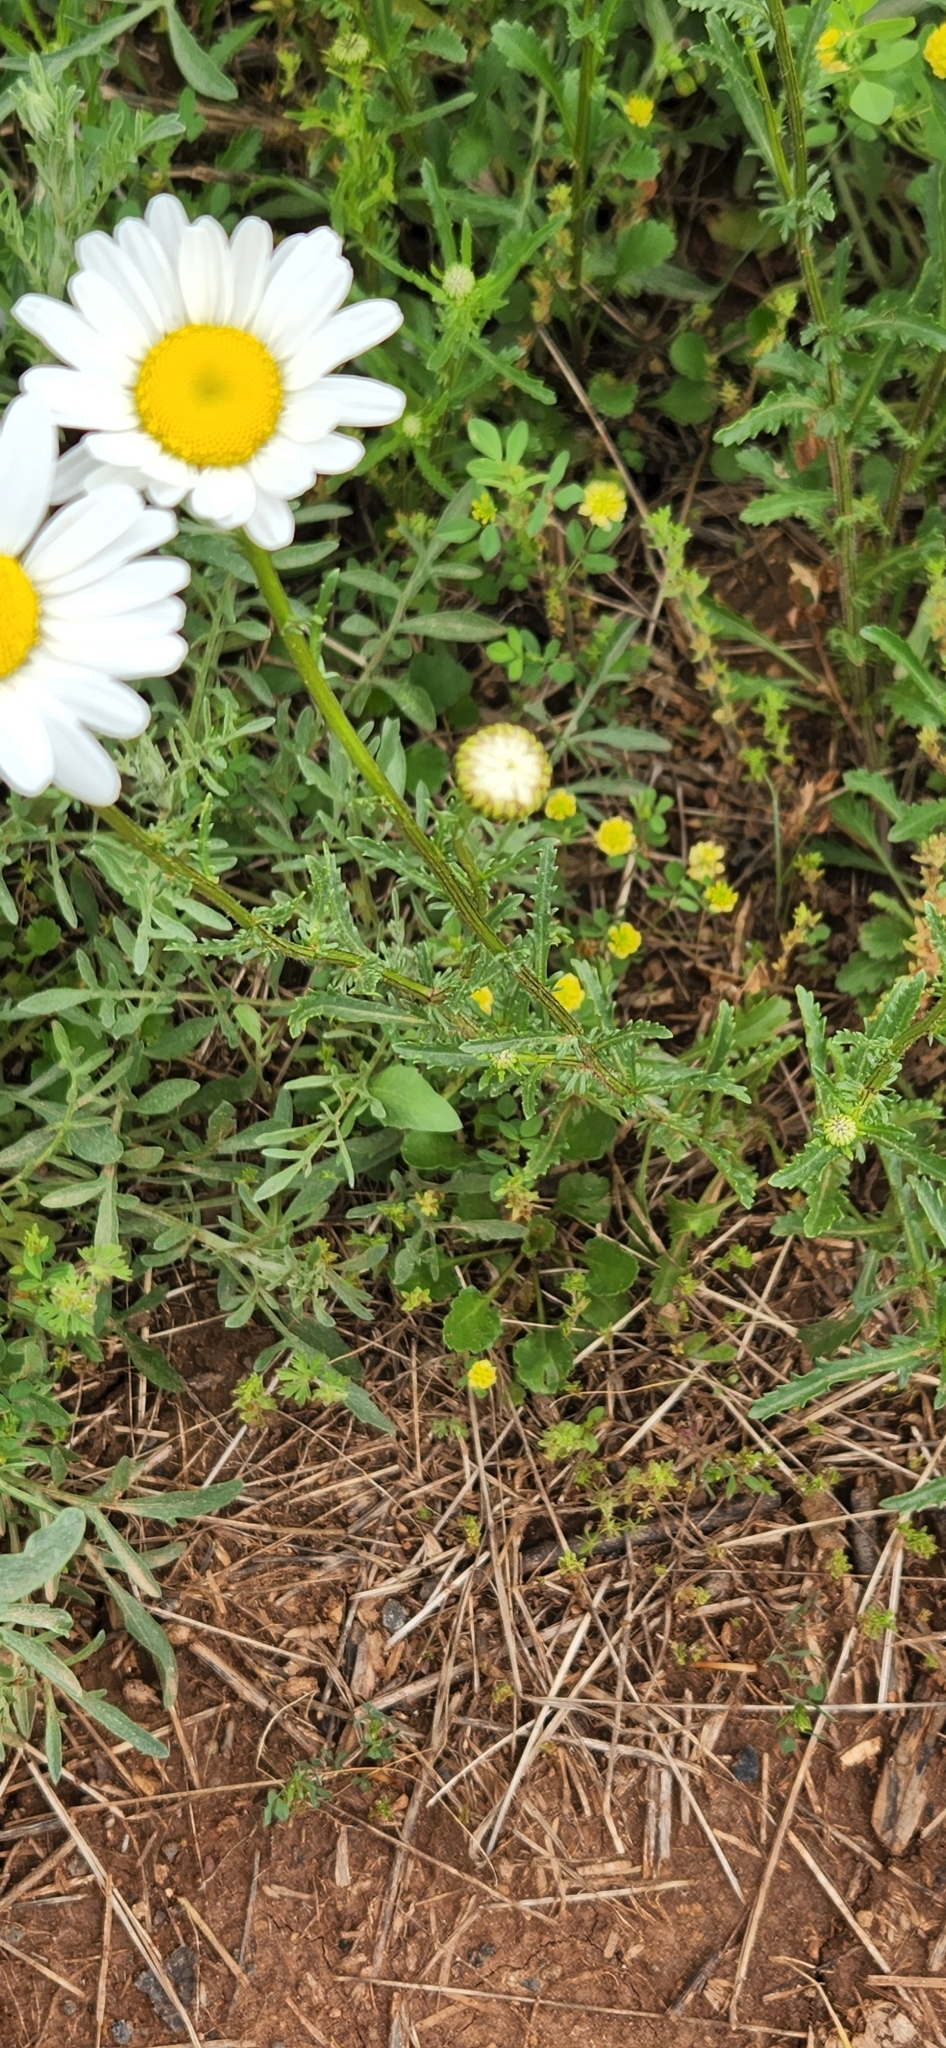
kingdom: Plantae
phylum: Tracheophyta
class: Magnoliopsida
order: Asterales
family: Asteraceae
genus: Leucanthemum
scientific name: Leucanthemum vulgare
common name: Oxeye daisy
